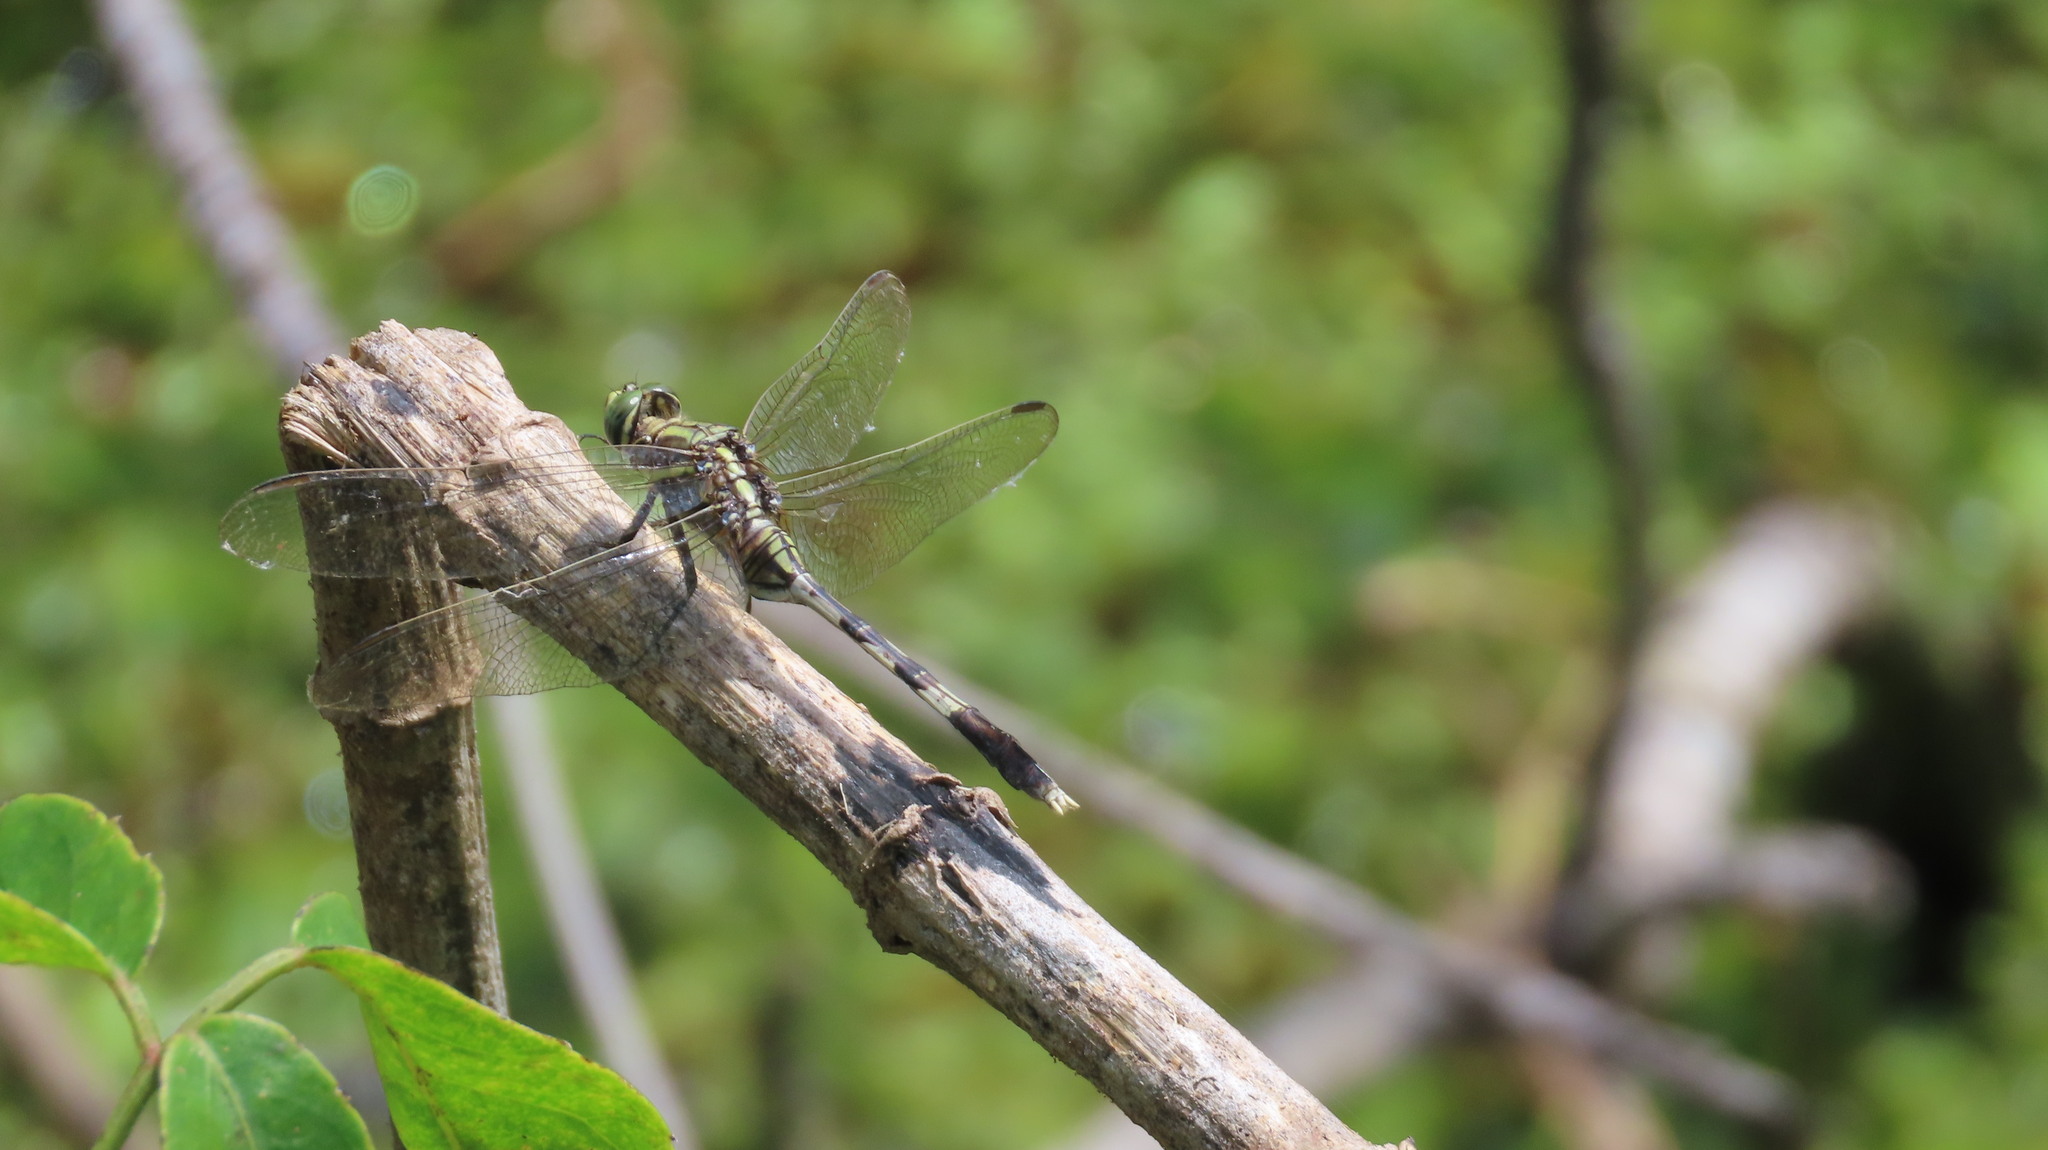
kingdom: Animalia
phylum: Arthropoda
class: Insecta
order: Odonata
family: Libellulidae
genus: Orthetrum
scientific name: Orthetrum sabina
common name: Slender skimmer
